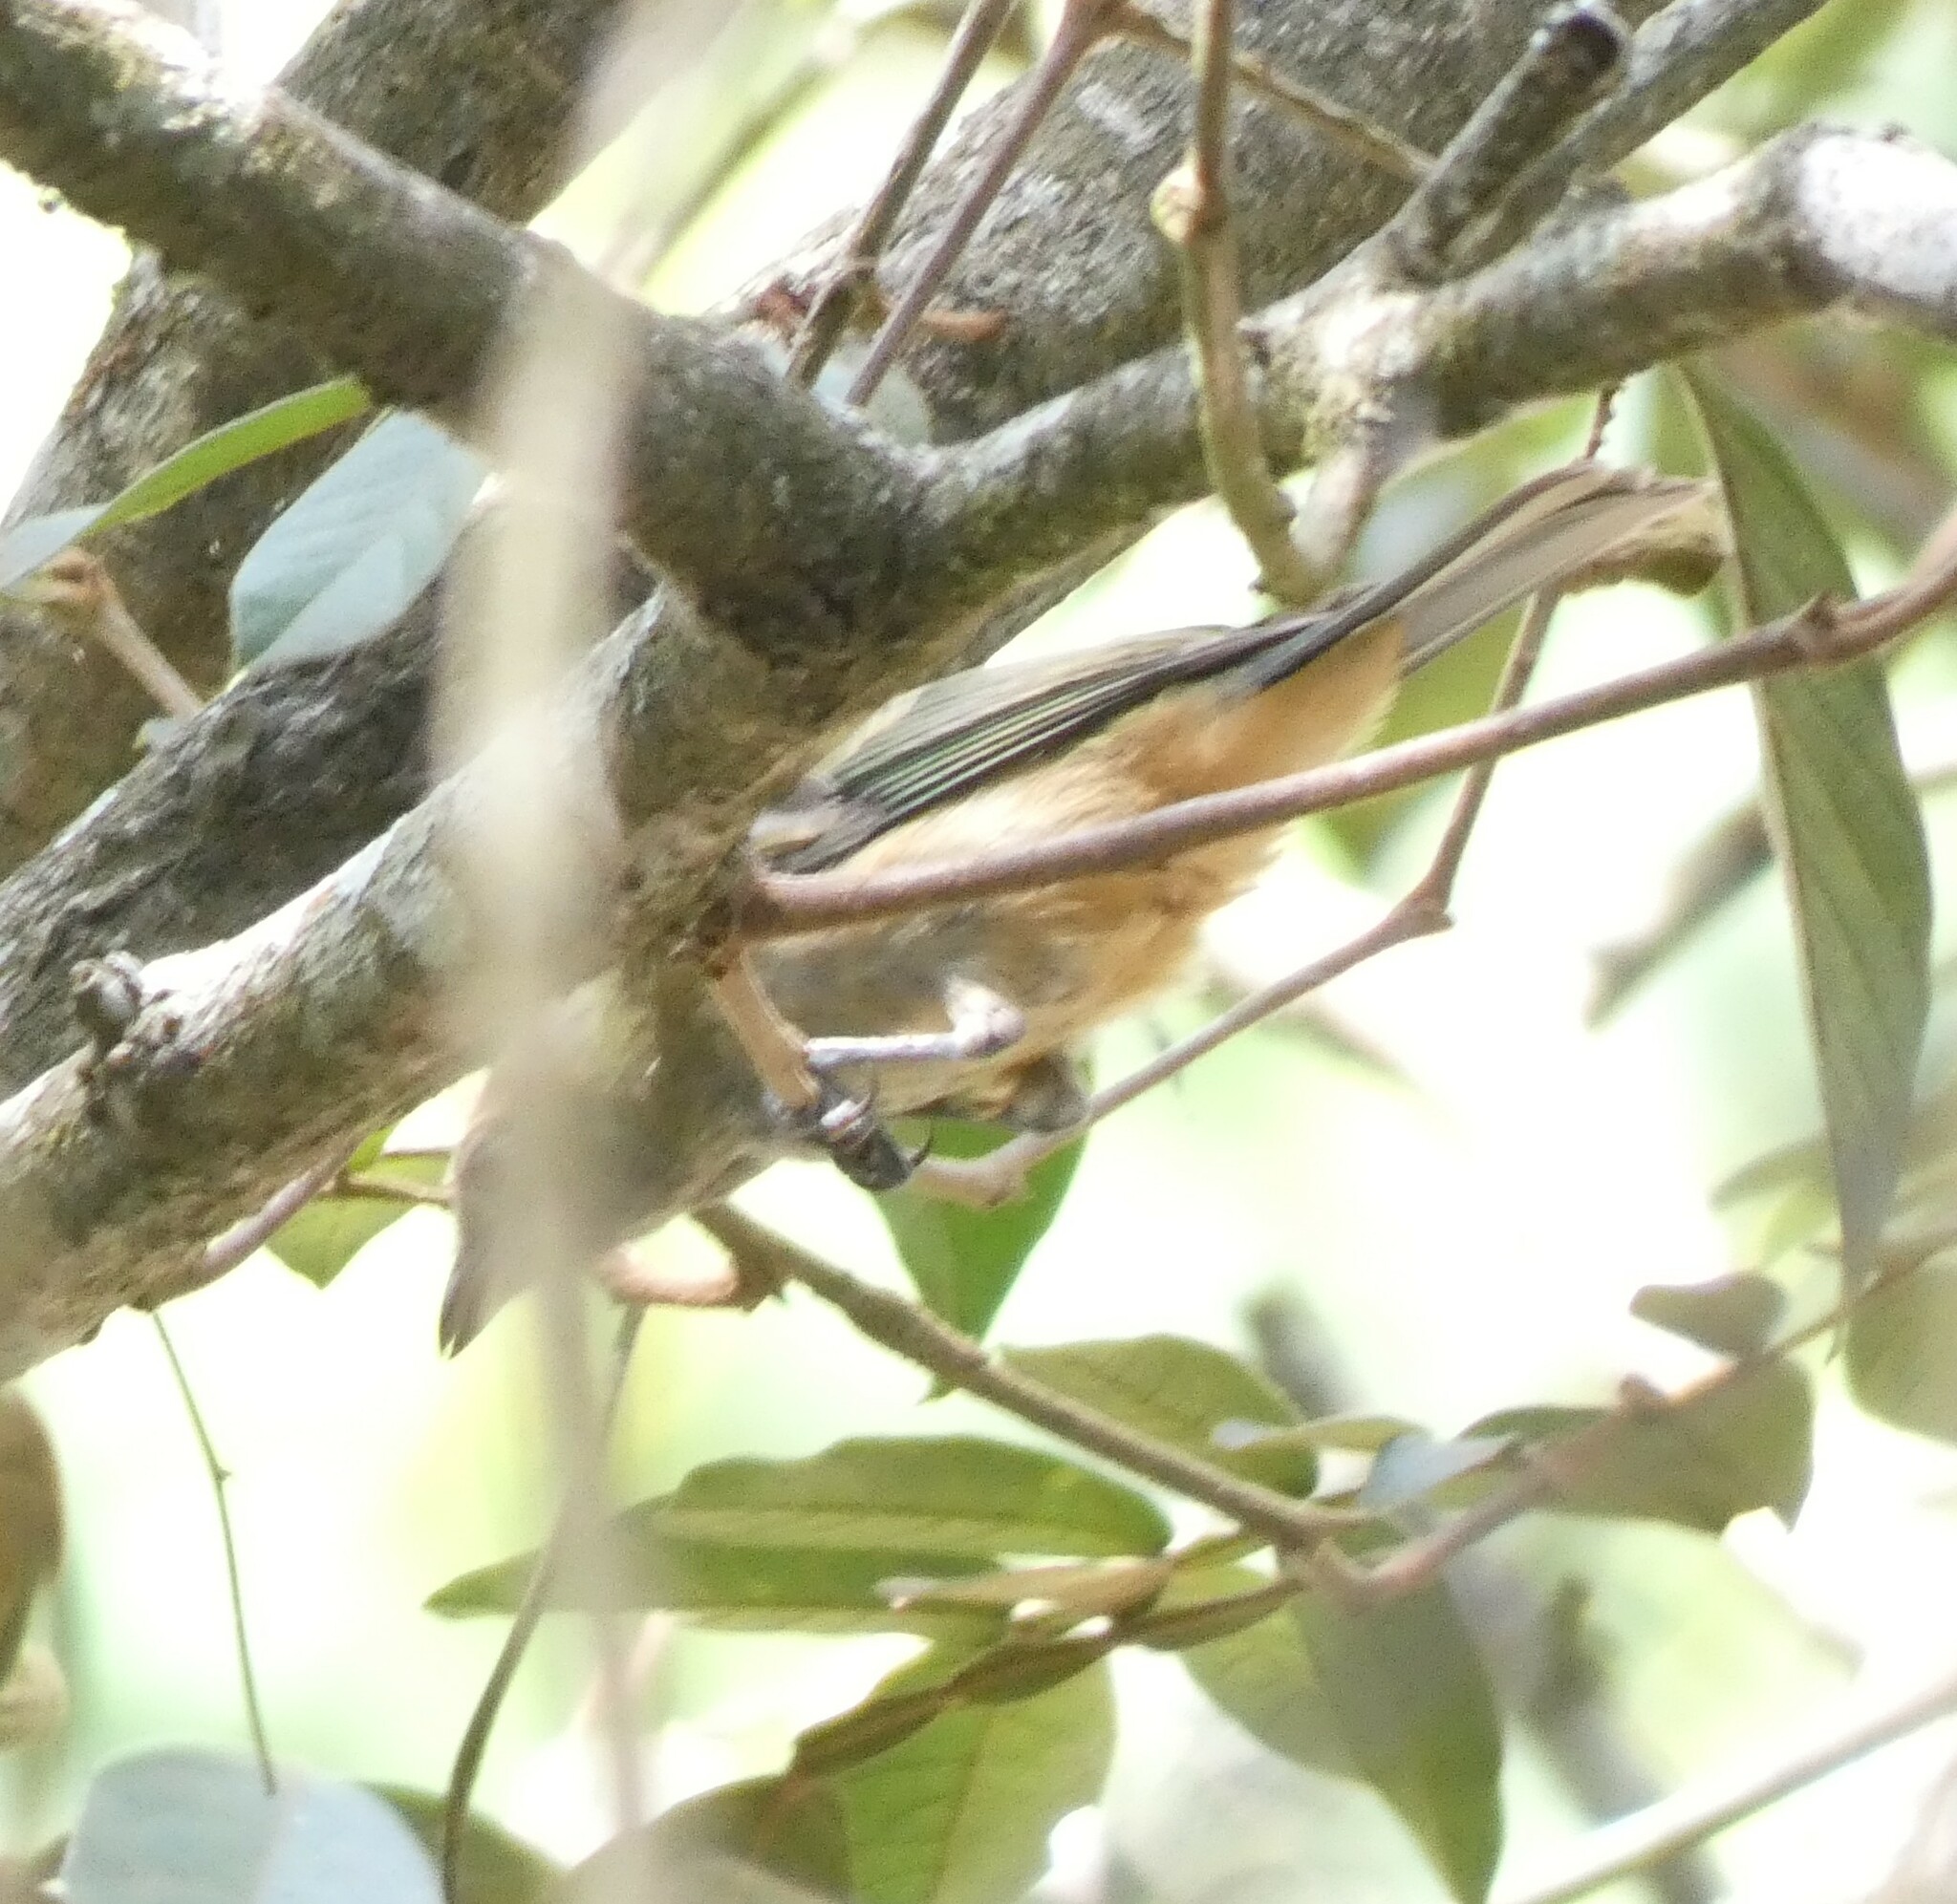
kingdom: Animalia
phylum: Chordata
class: Aves
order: Passeriformes
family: Thraupidae
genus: Stilpnia
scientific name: Stilpnia cayana
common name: Burnished-buff tanager
